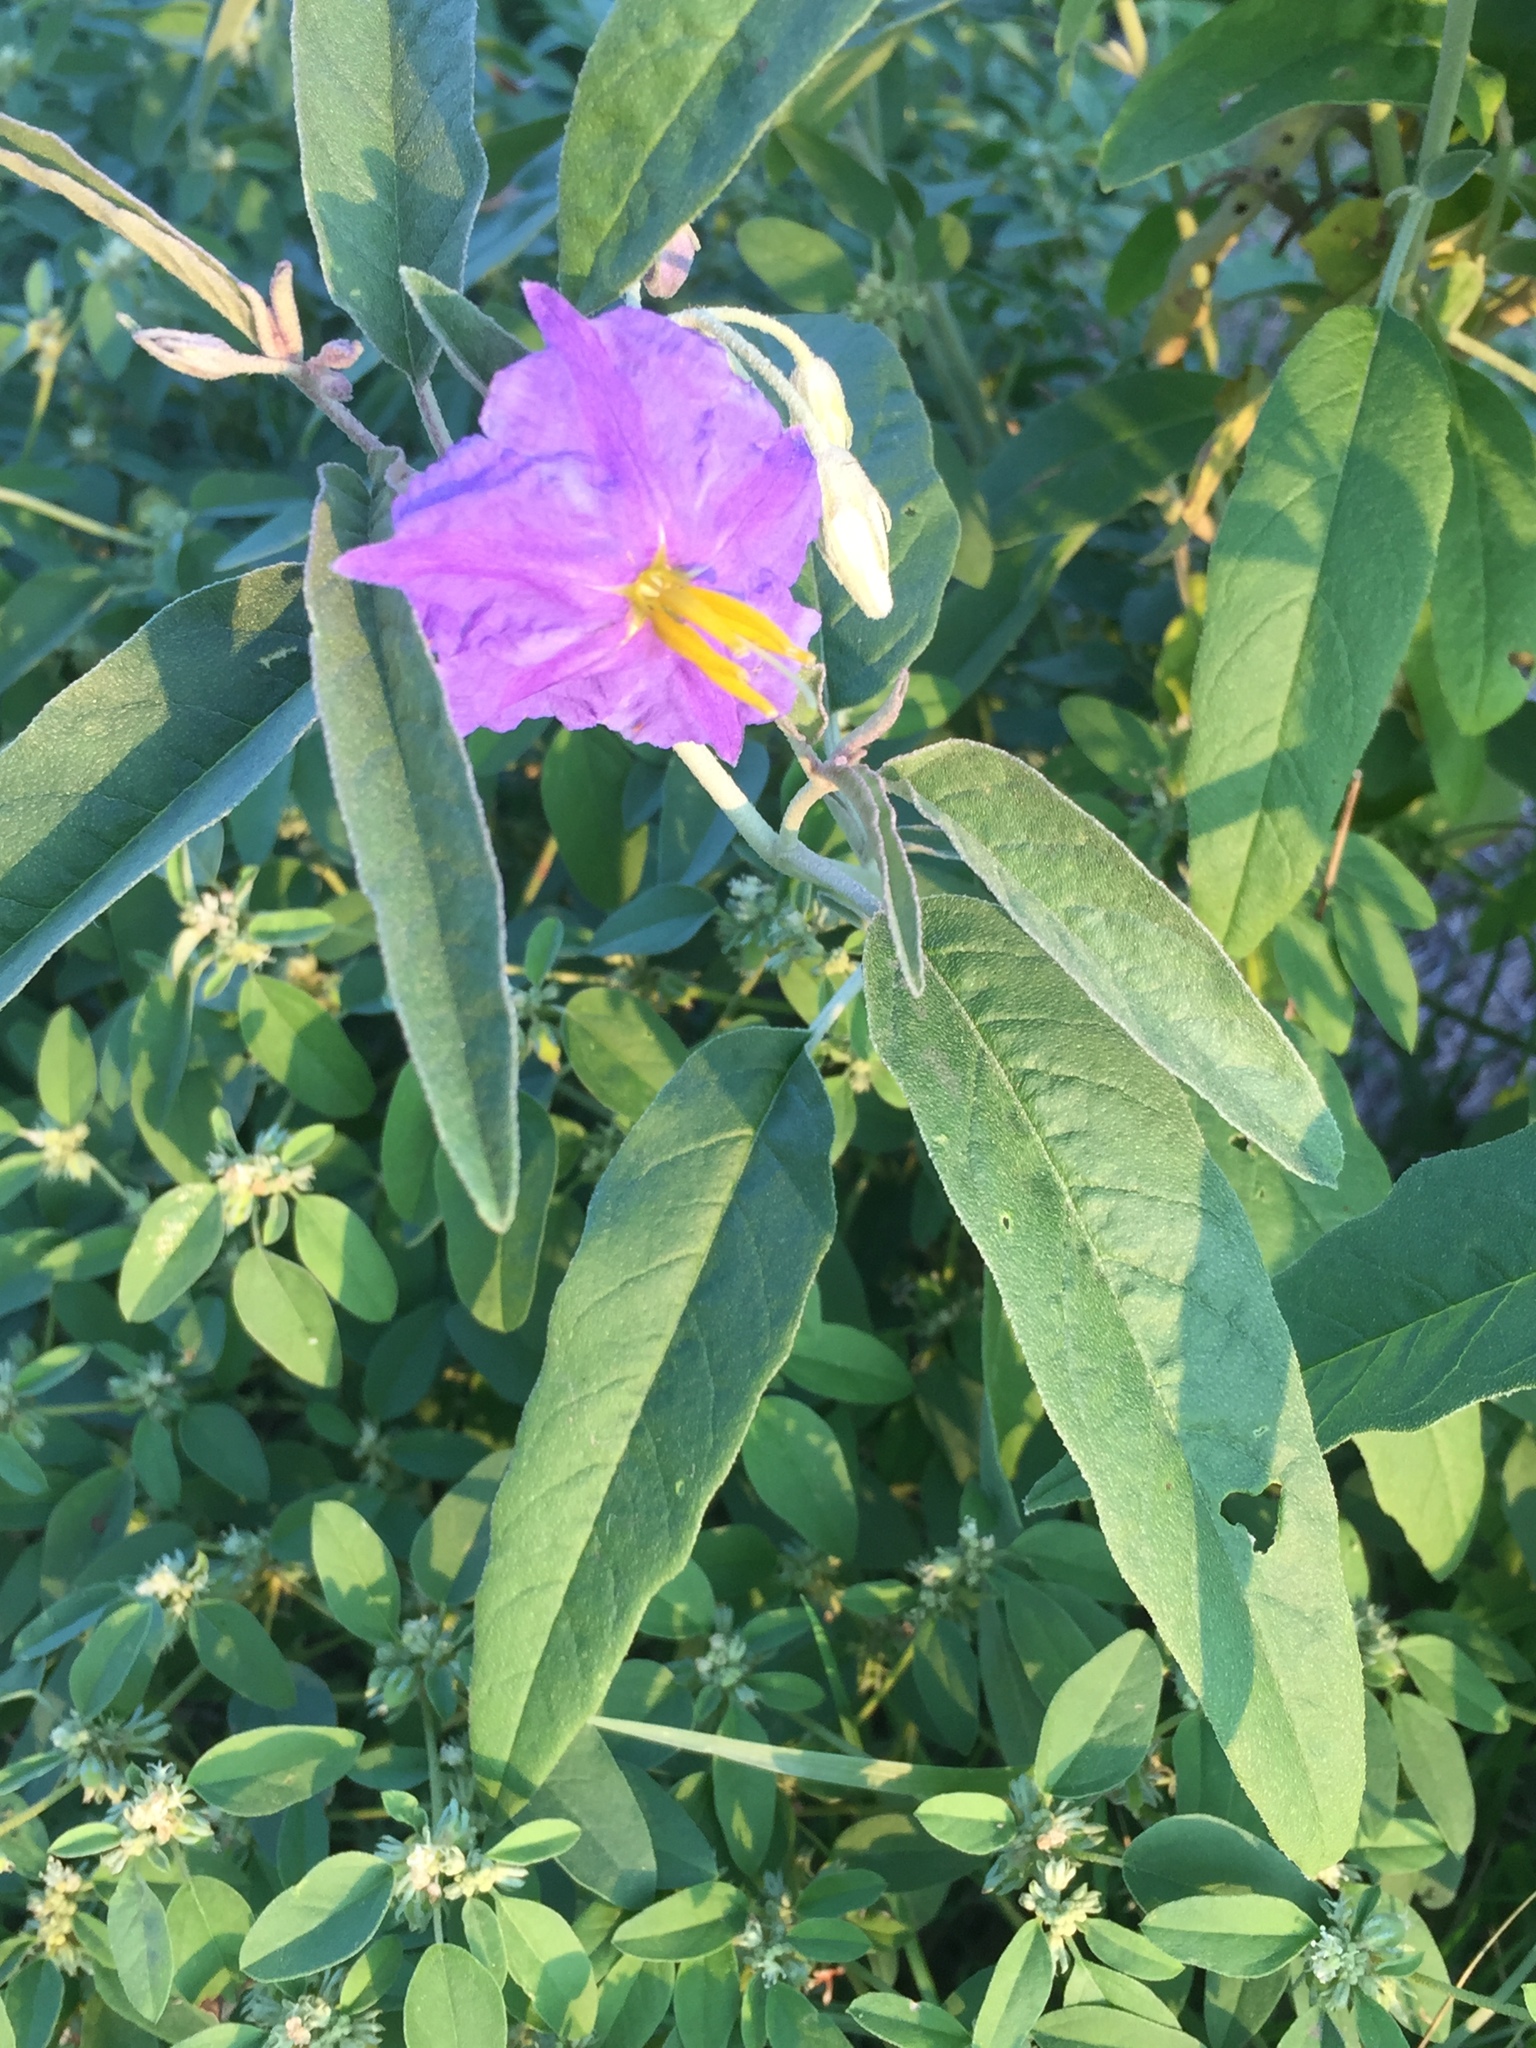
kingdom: Plantae
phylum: Tracheophyta
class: Magnoliopsida
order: Solanales
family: Solanaceae
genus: Solanum
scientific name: Solanum elaeagnifolium
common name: Silverleaf nightshade
